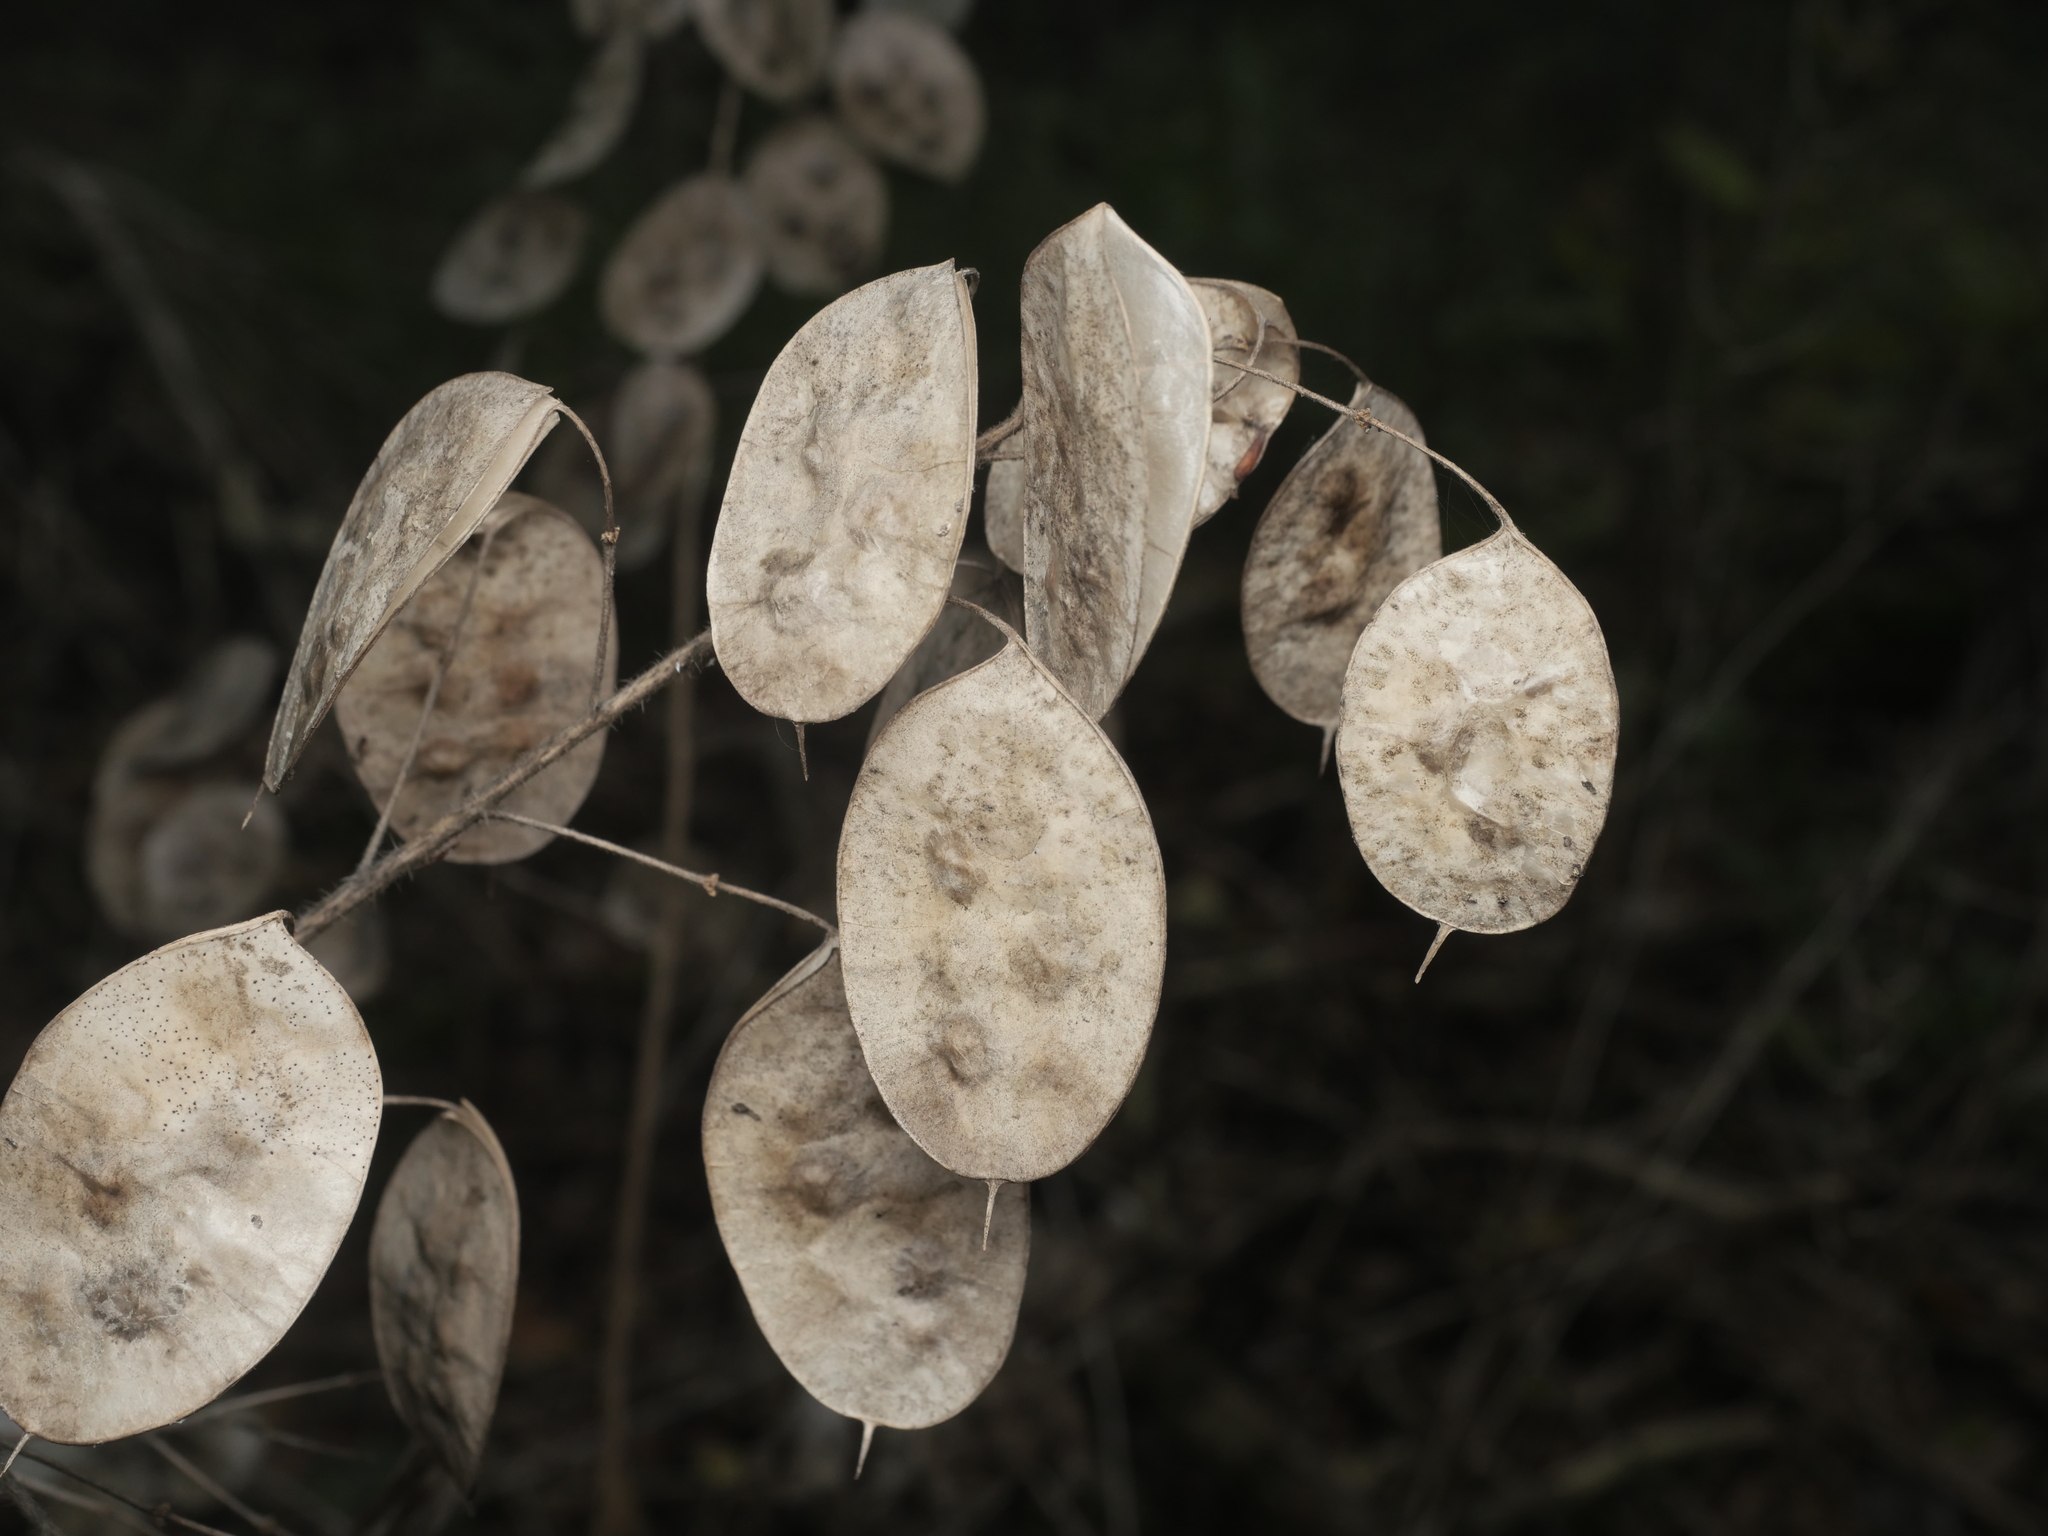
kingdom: Plantae
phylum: Tracheophyta
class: Magnoliopsida
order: Brassicales
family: Brassicaceae
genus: Lunaria
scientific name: Lunaria annua
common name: Honesty
